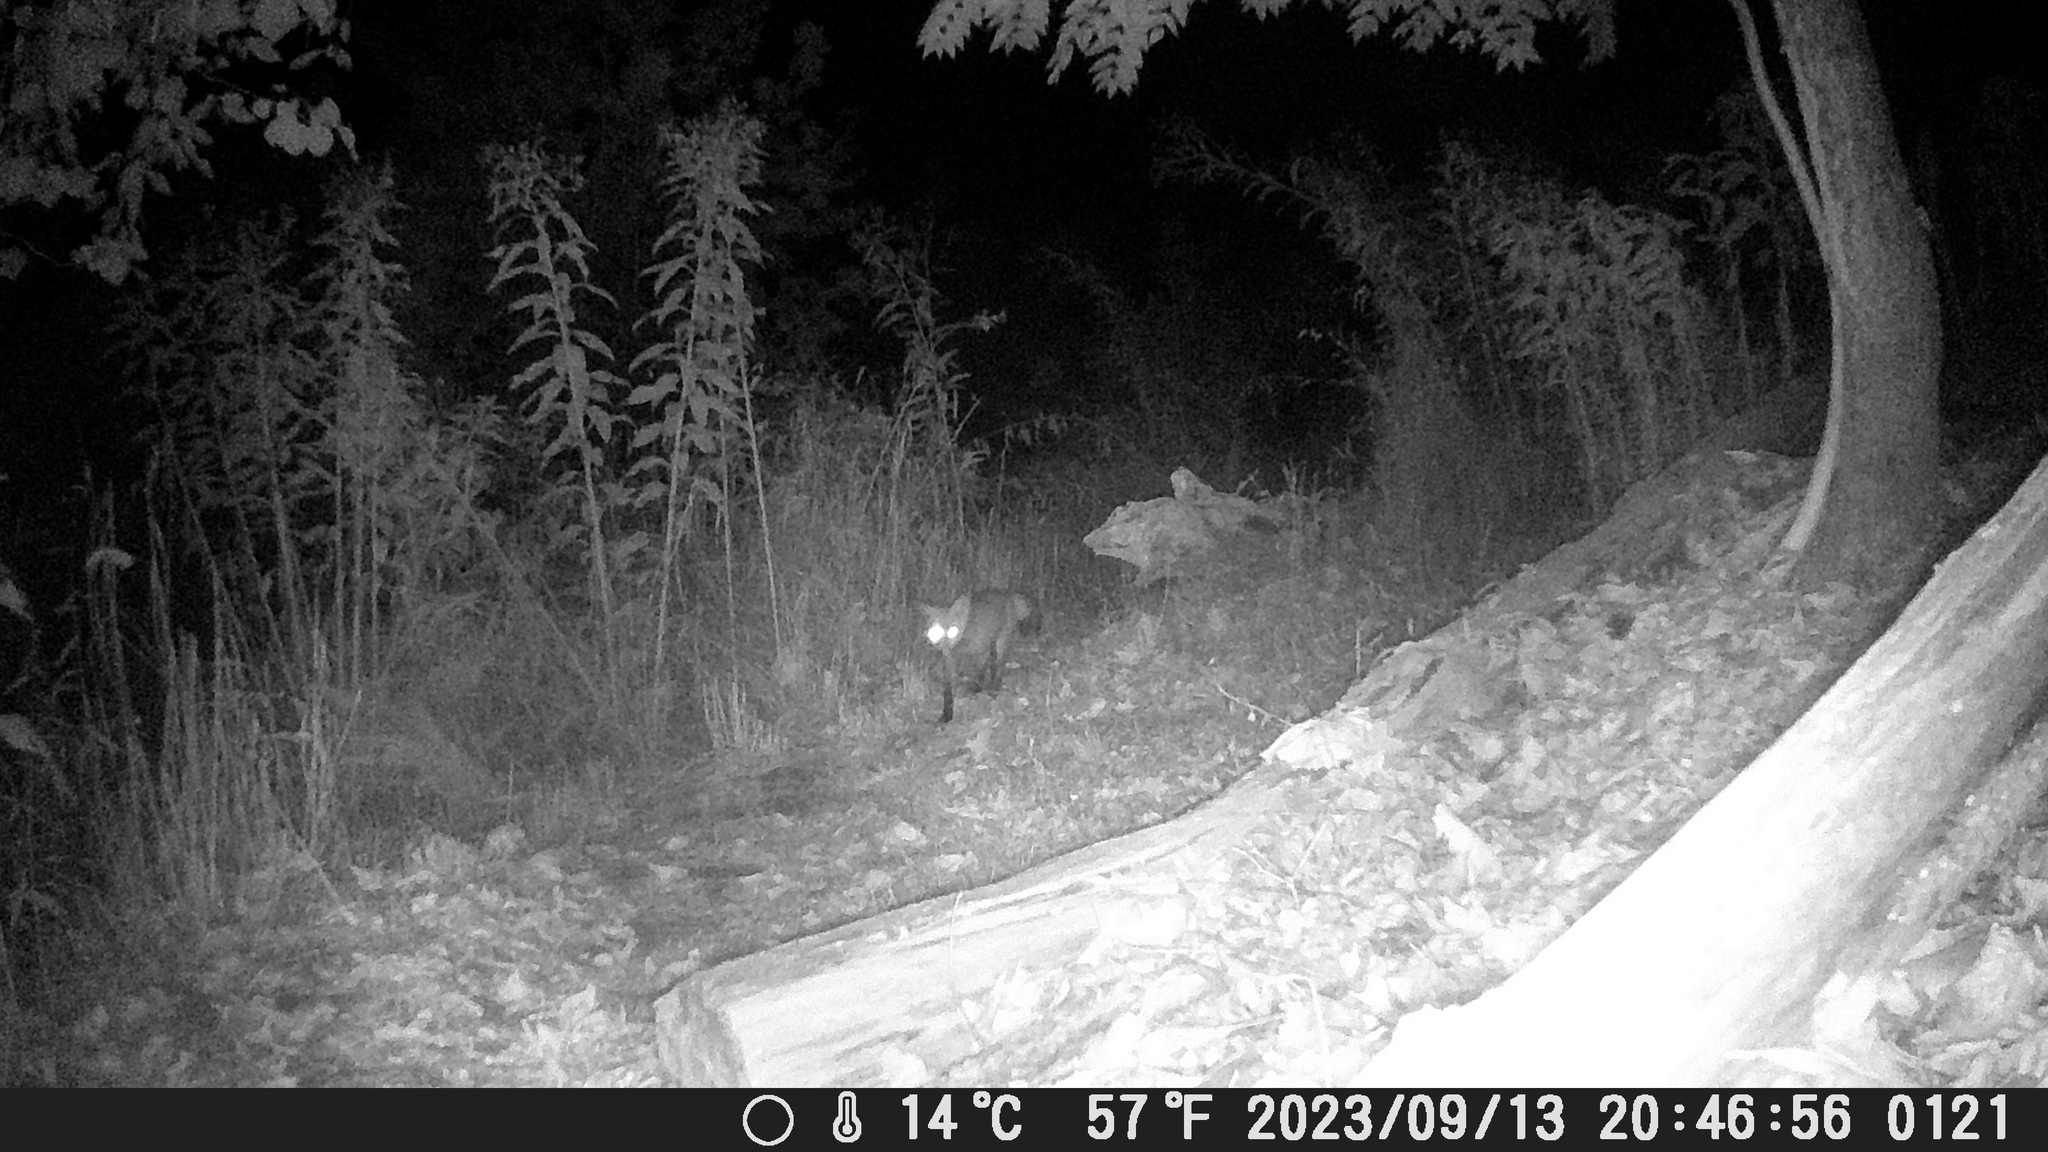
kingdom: Animalia
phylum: Chordata
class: Mammalia
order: Carnivora
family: Canidae
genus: Vulpes
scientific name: Vulpes vulpes
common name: Red fox
